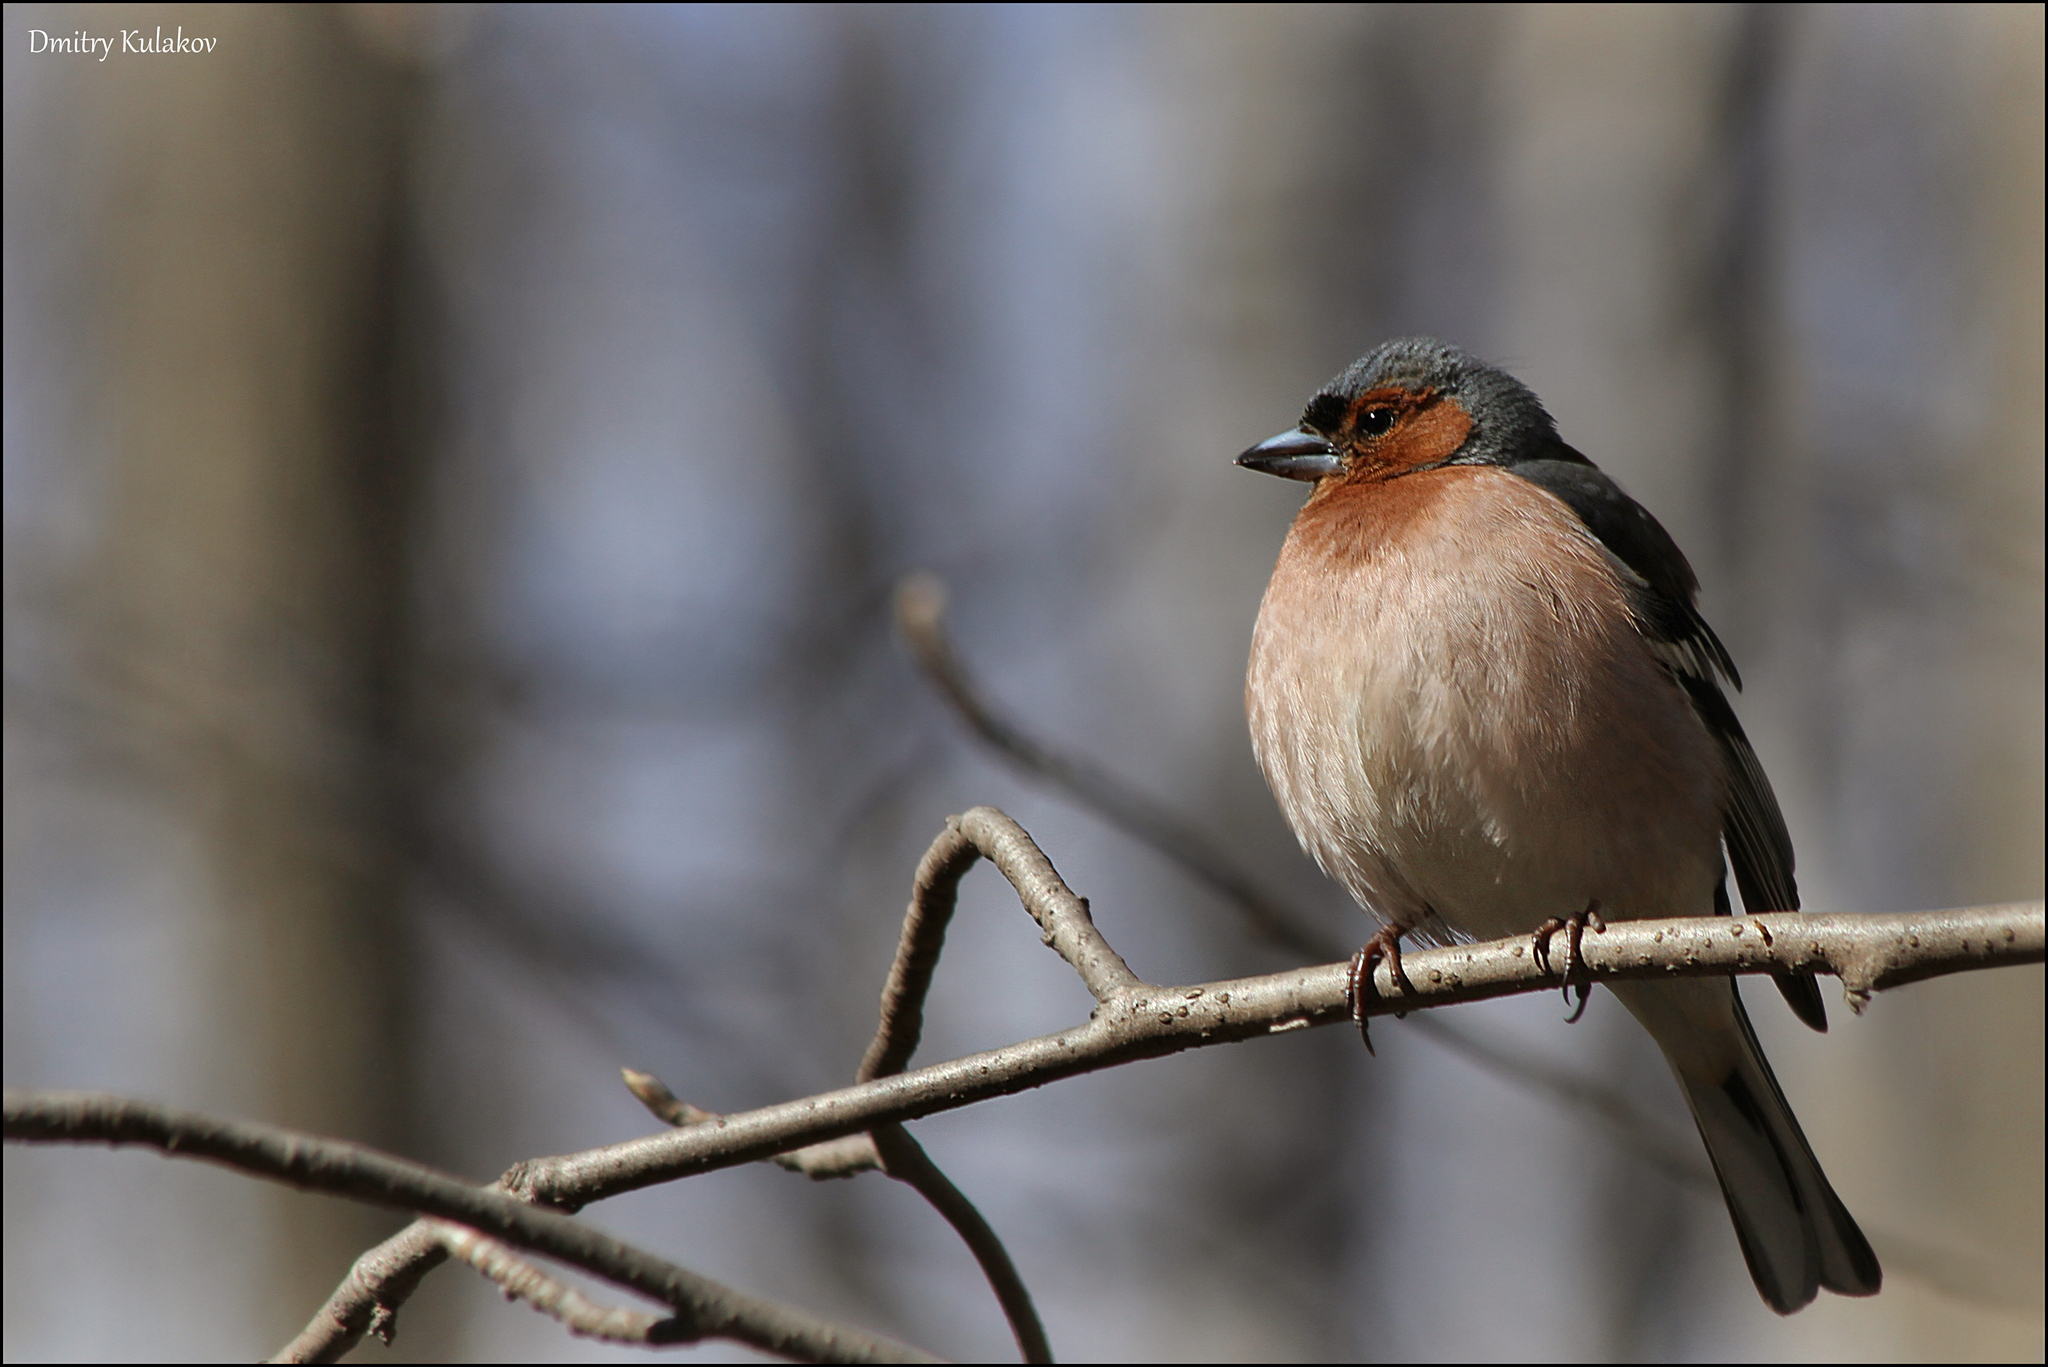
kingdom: Animalia
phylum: Chordata
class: Aves
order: Passeriformes
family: Fringillidae
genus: Fringilla
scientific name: Fringilla coelebs
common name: Common chaffinch
